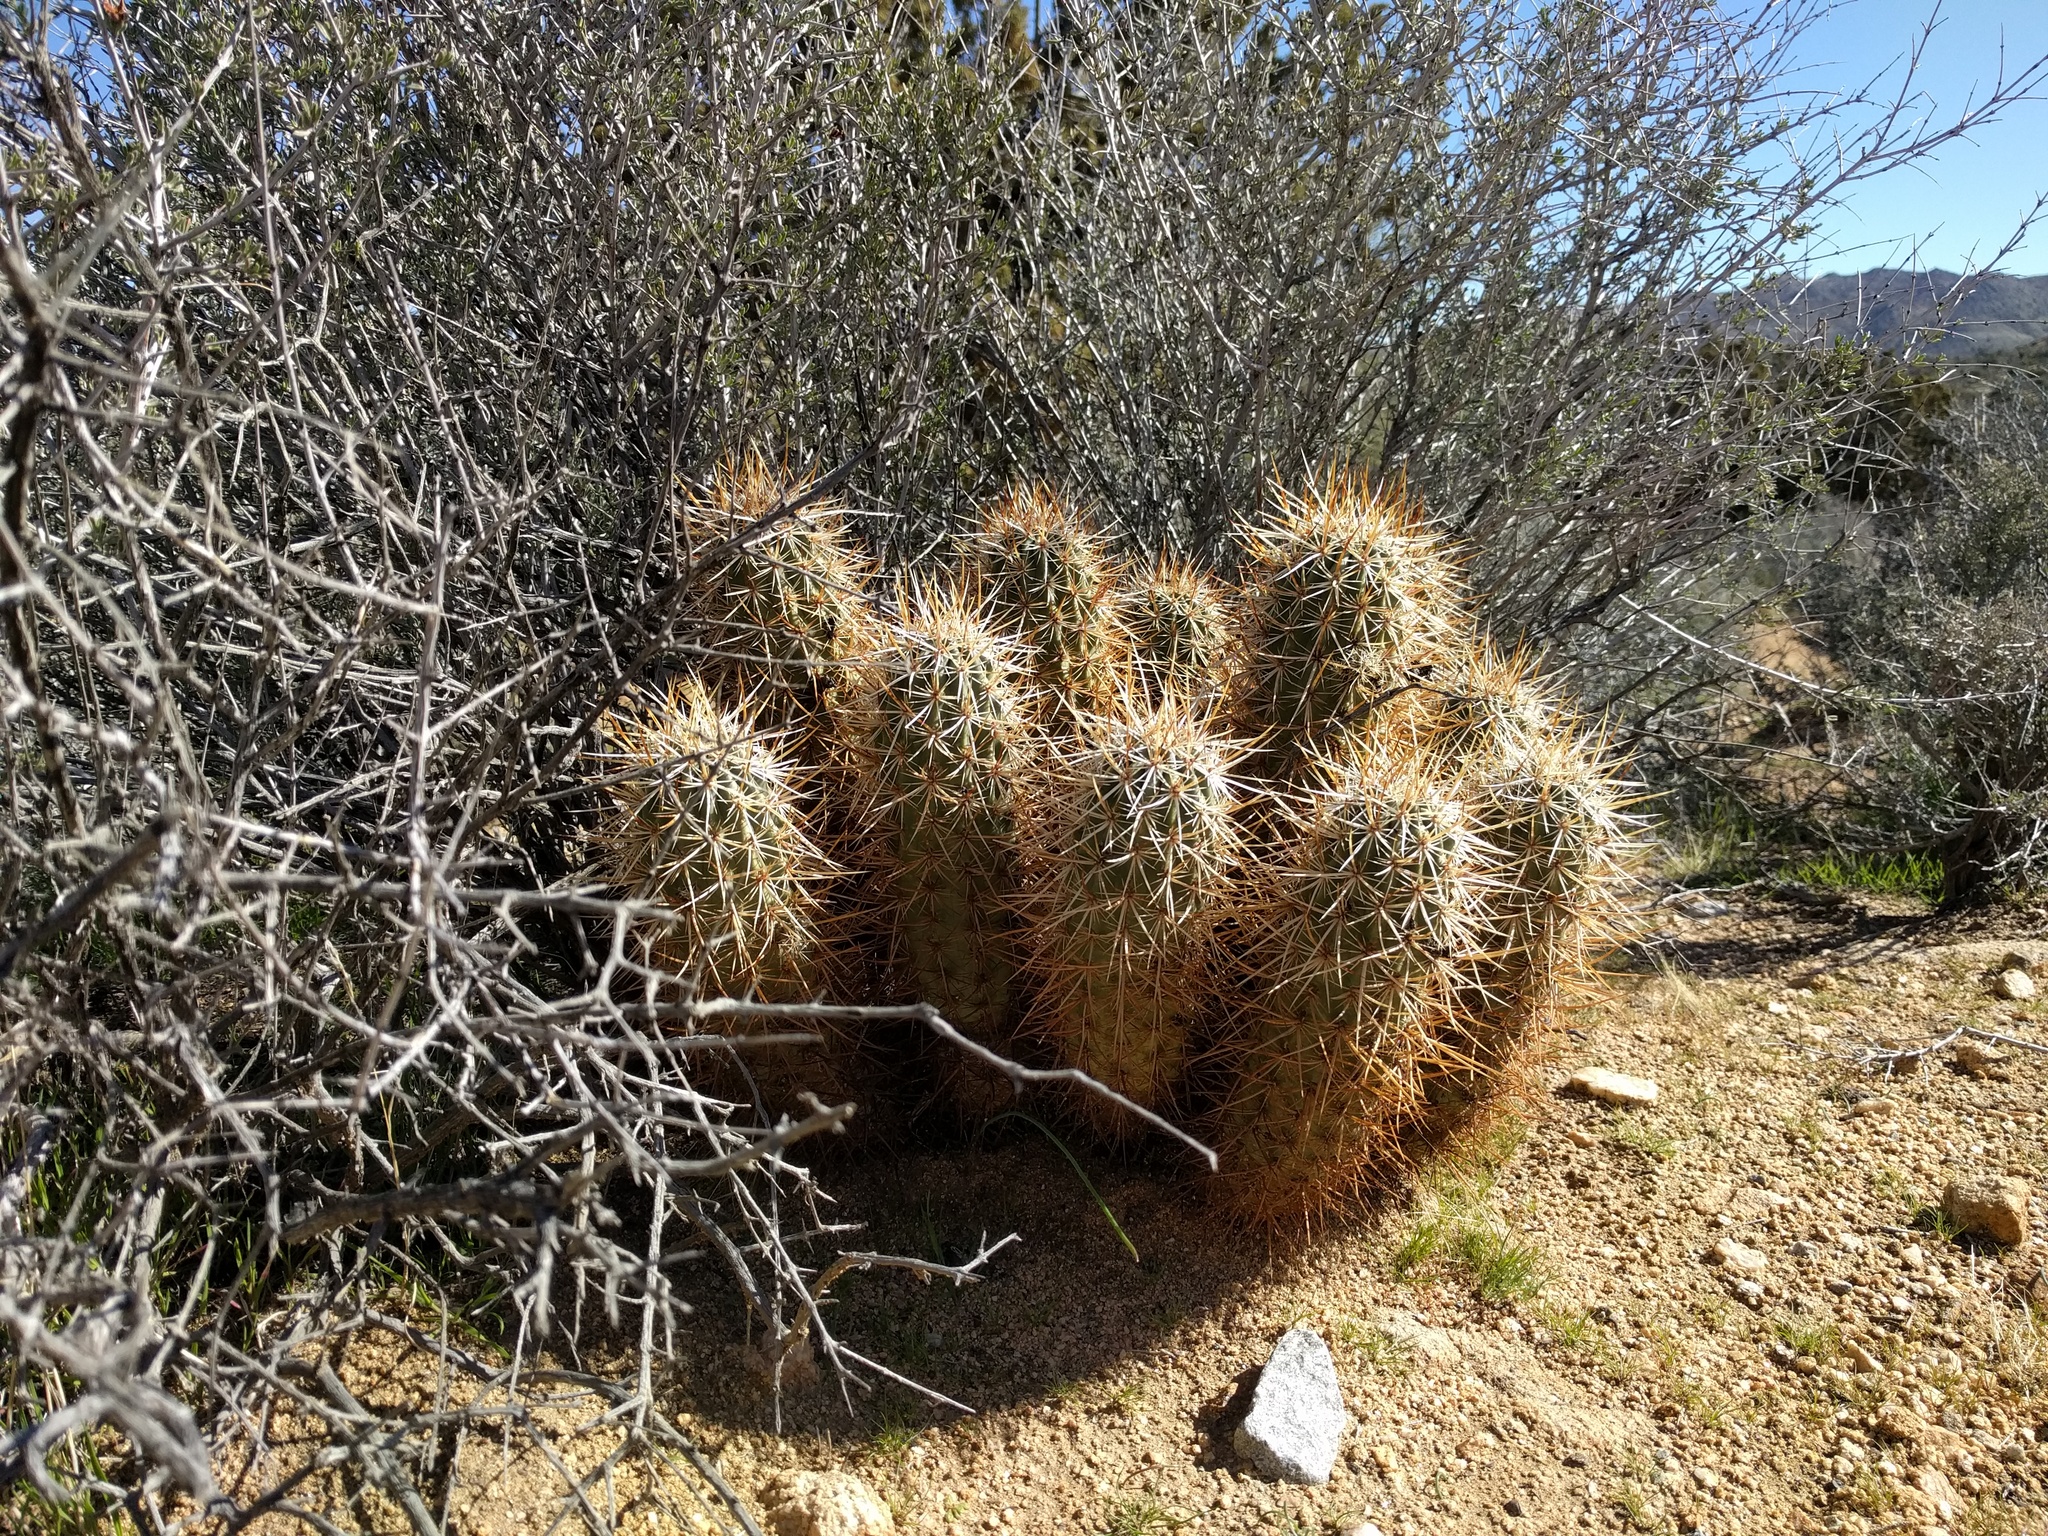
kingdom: Plantae
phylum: Tracheophyta
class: Magnoliopsida
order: Caryophyllales
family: Cactaceae
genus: Echinocereus
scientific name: Echinocereus engelmannii
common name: Engelmann's hedgehog cactus
